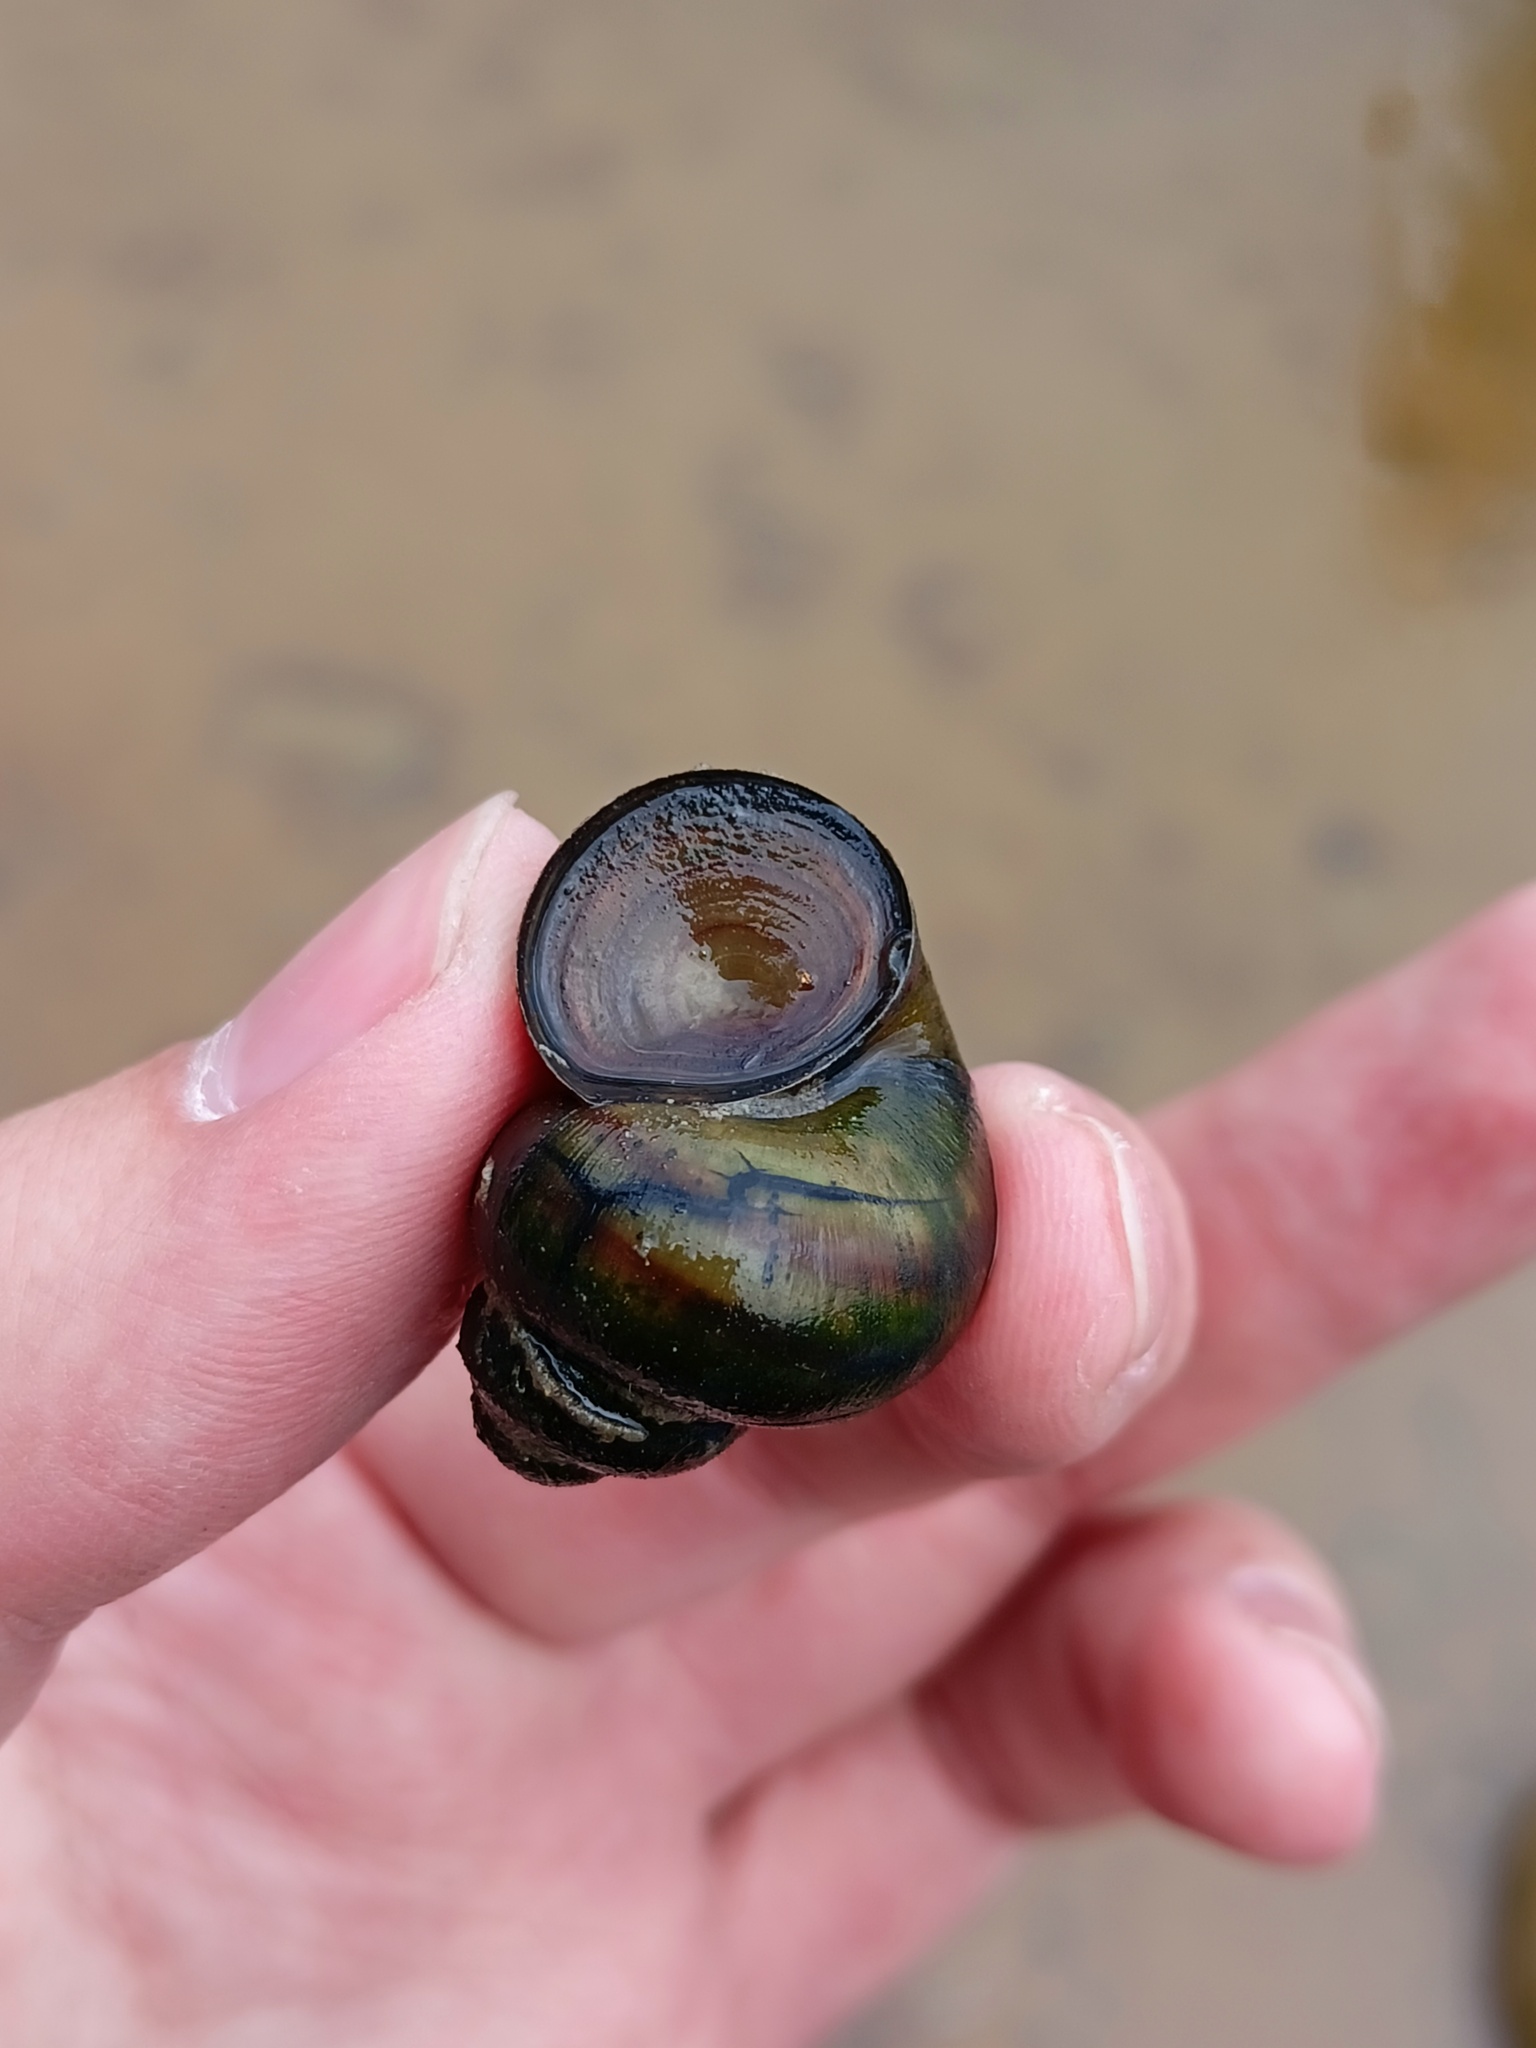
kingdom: Animalia
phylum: Mollusca
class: Gastropoda
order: Architaenioglossa
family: Viviparidae
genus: Viviparus
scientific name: Viviparus contectus
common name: Lister's river snail
